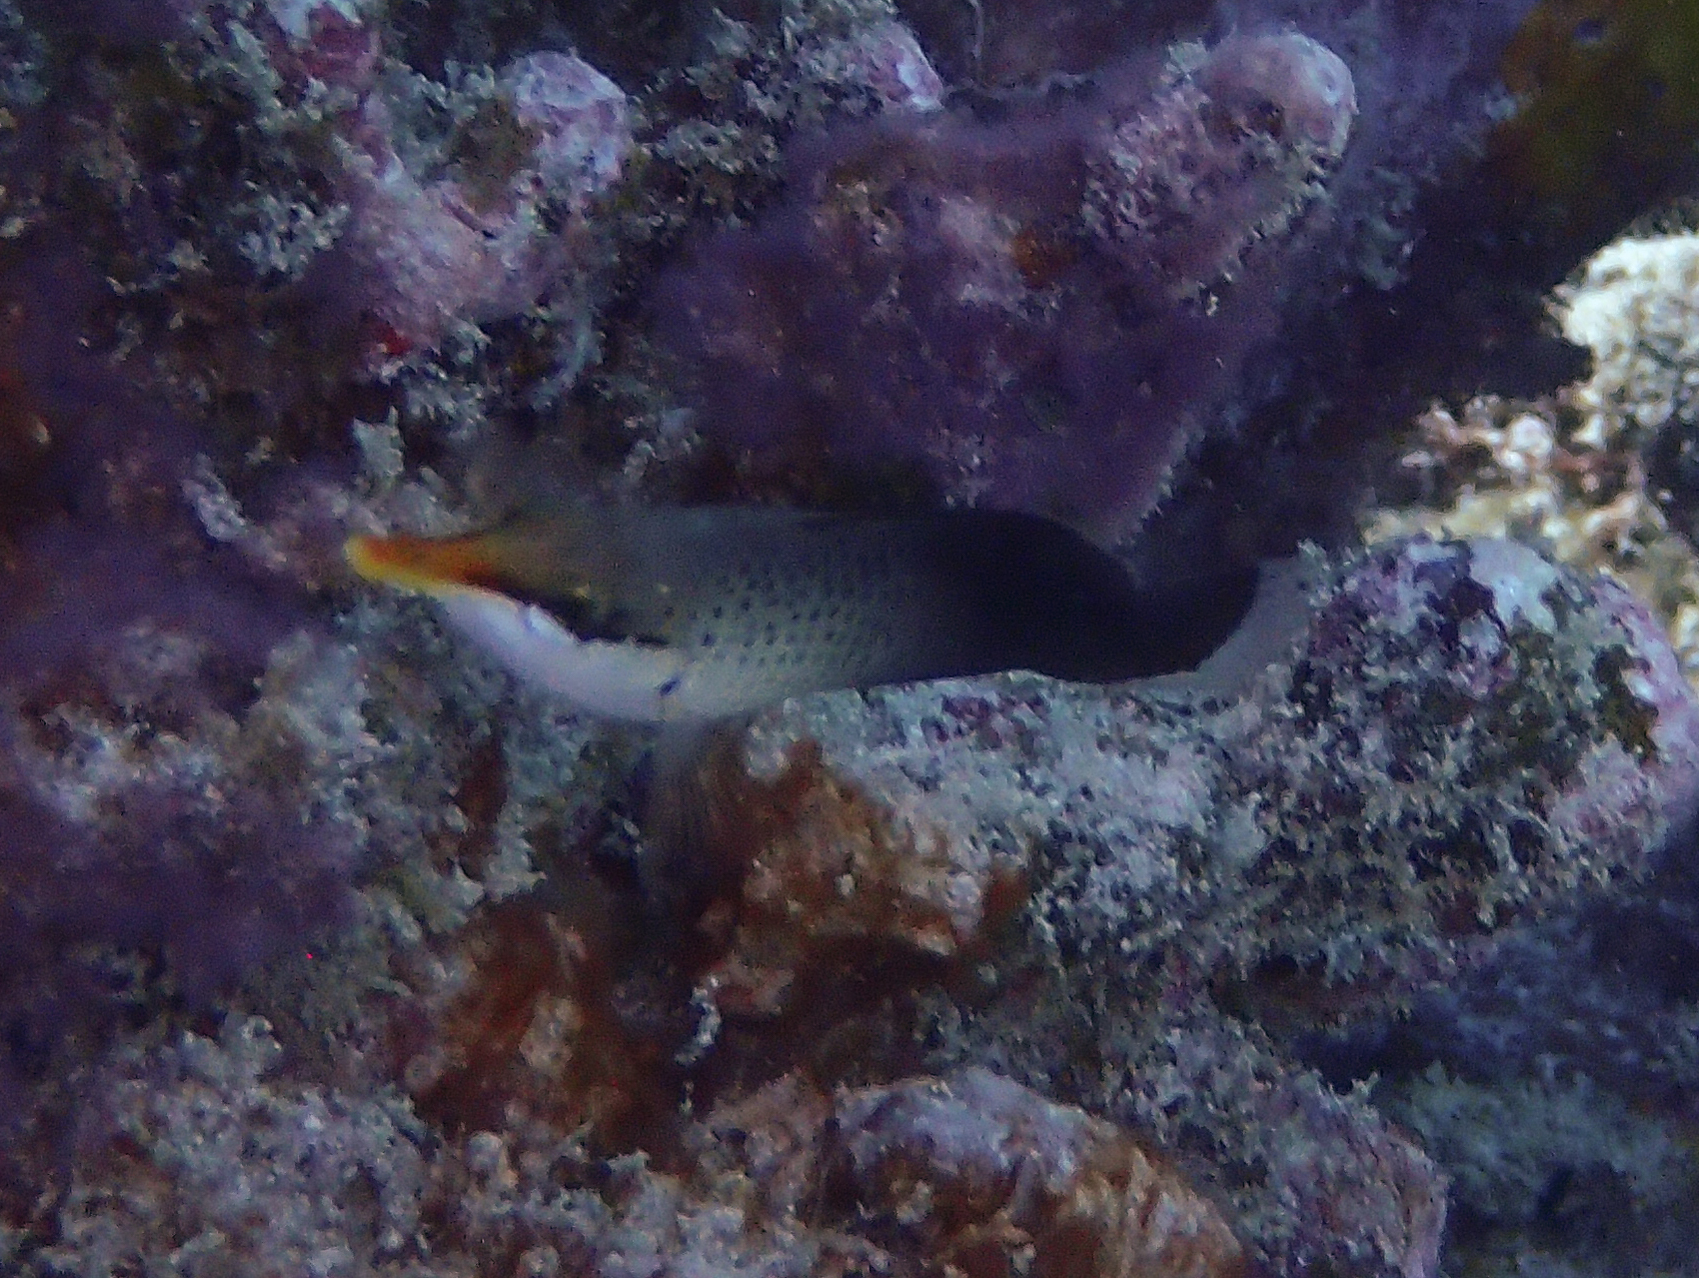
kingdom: Animalia
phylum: Chordata
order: Perciformes
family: Labridae
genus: Gomphosus
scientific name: Gomphosus varius
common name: Bird wrasse
